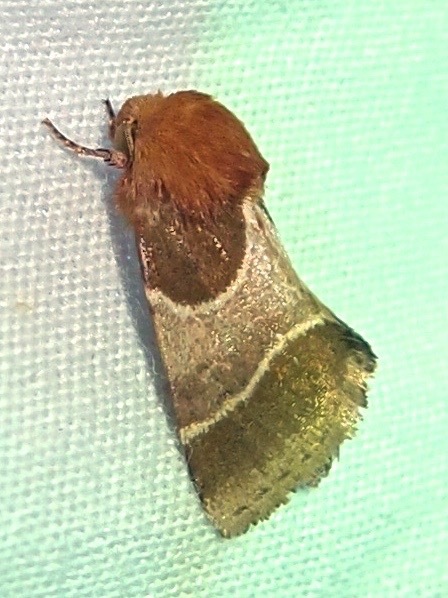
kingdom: Animalia
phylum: Arthropoda
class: Insecta
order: Lepidoptera
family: Noctuidae
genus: Schinia
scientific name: Schinia arcigera
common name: Arcigera flower moth
